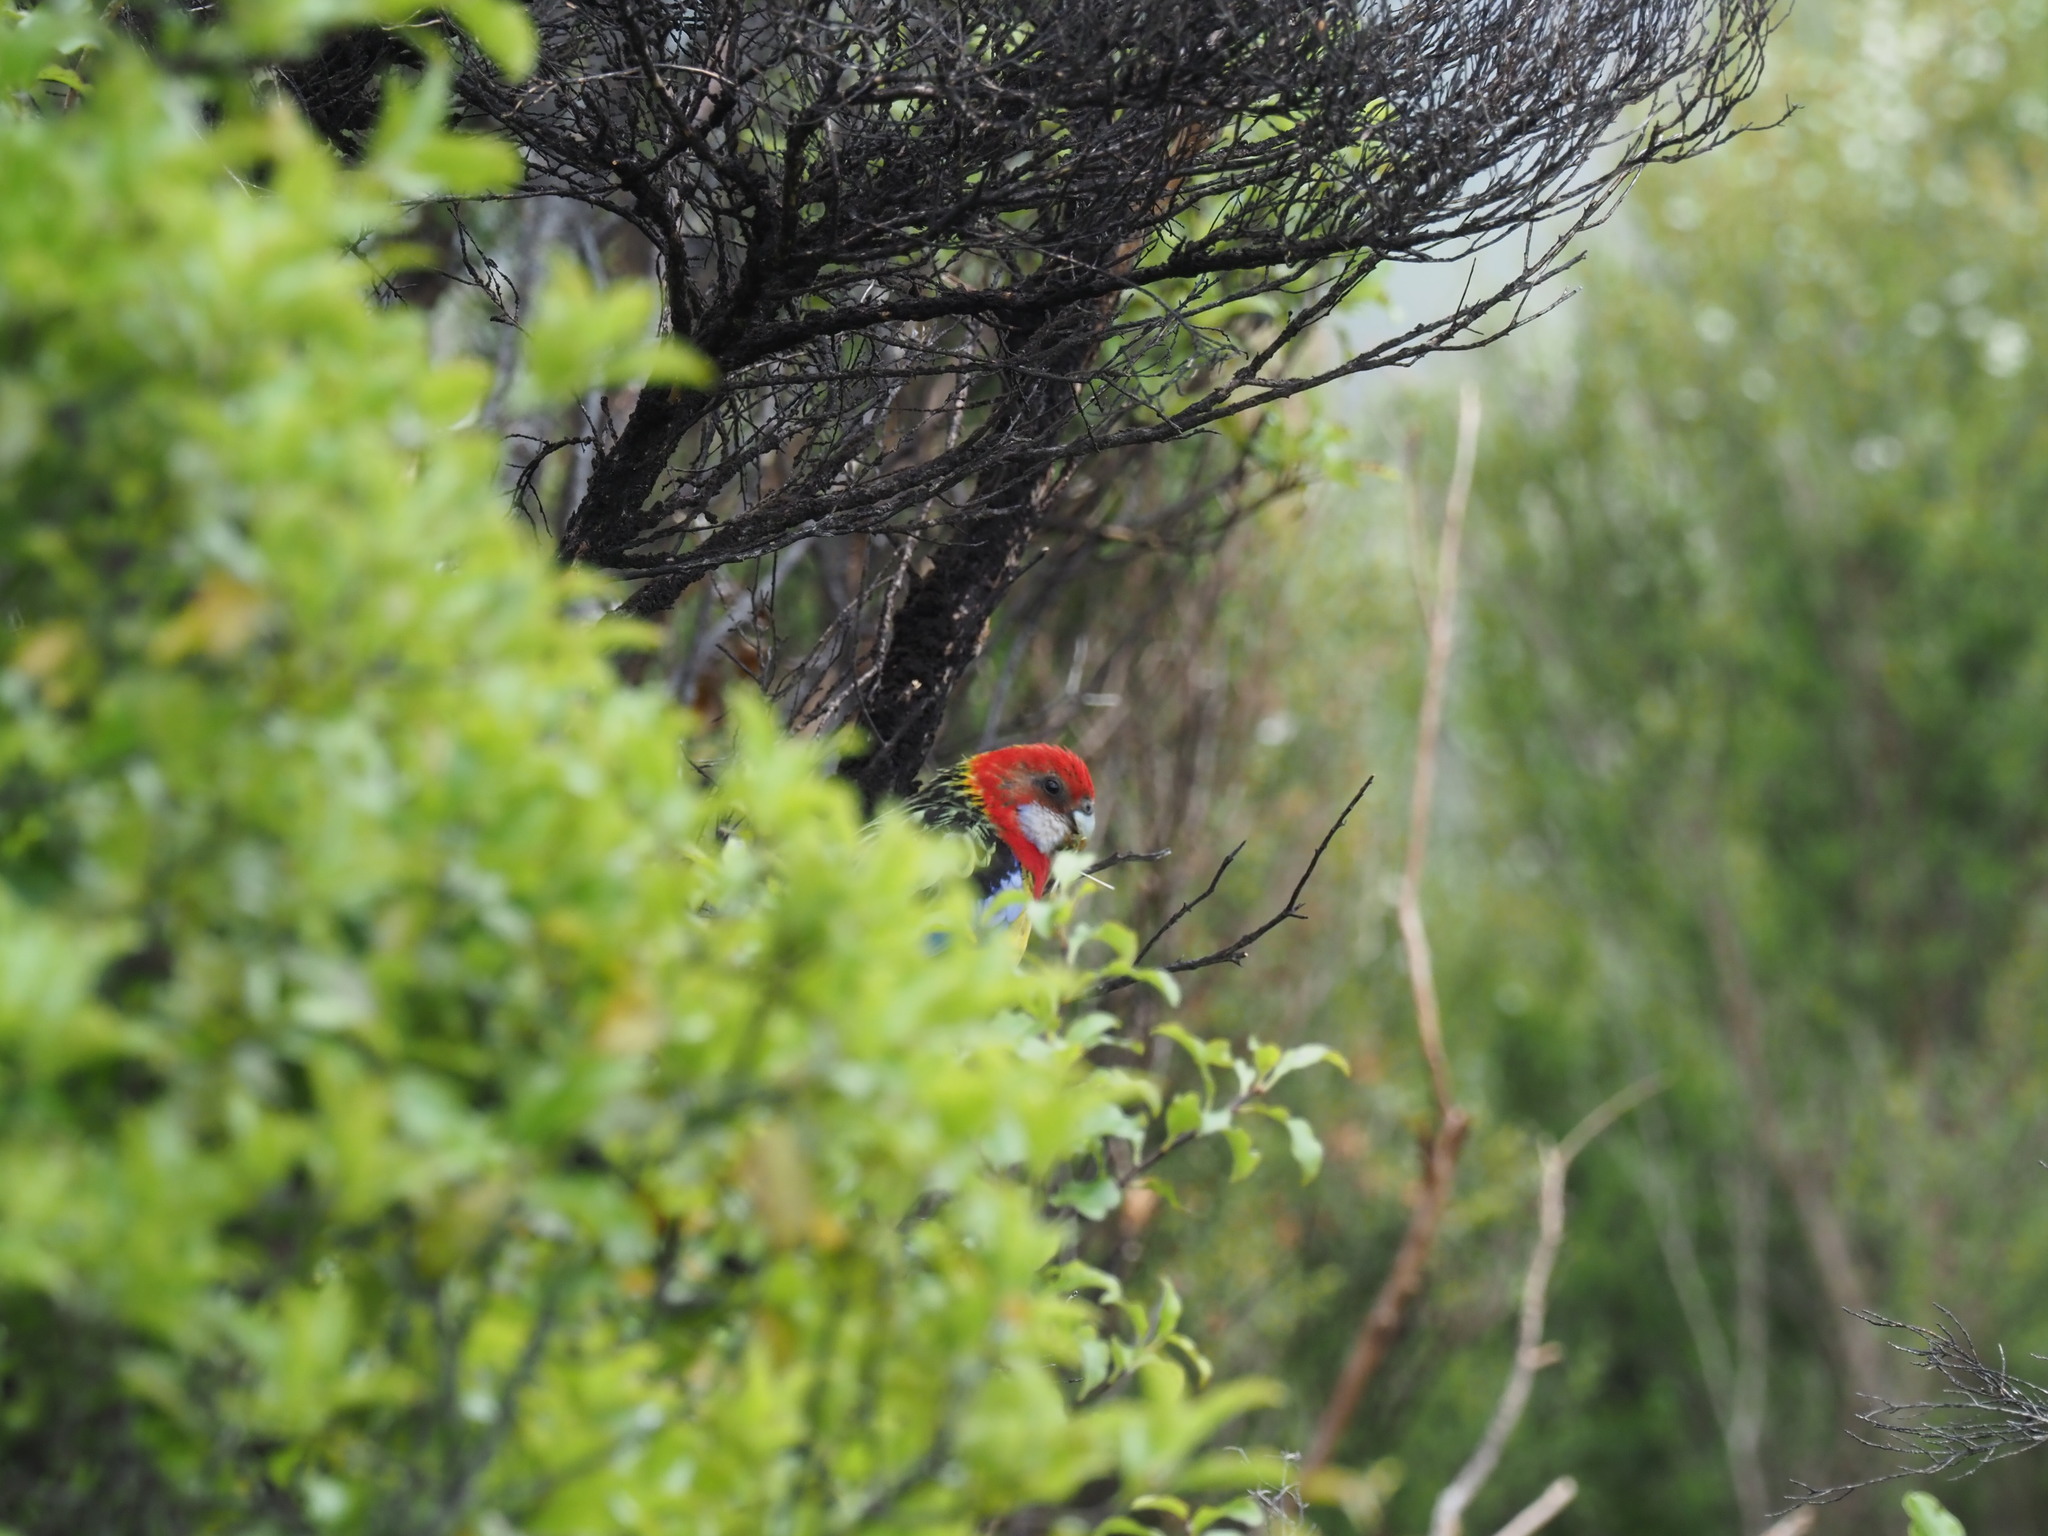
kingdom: Animalia
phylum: Chordata
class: Aves
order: Psittaciformes
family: Psittacidae
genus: Platycercus
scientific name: Platycercus eximius
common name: Eastern rosella
